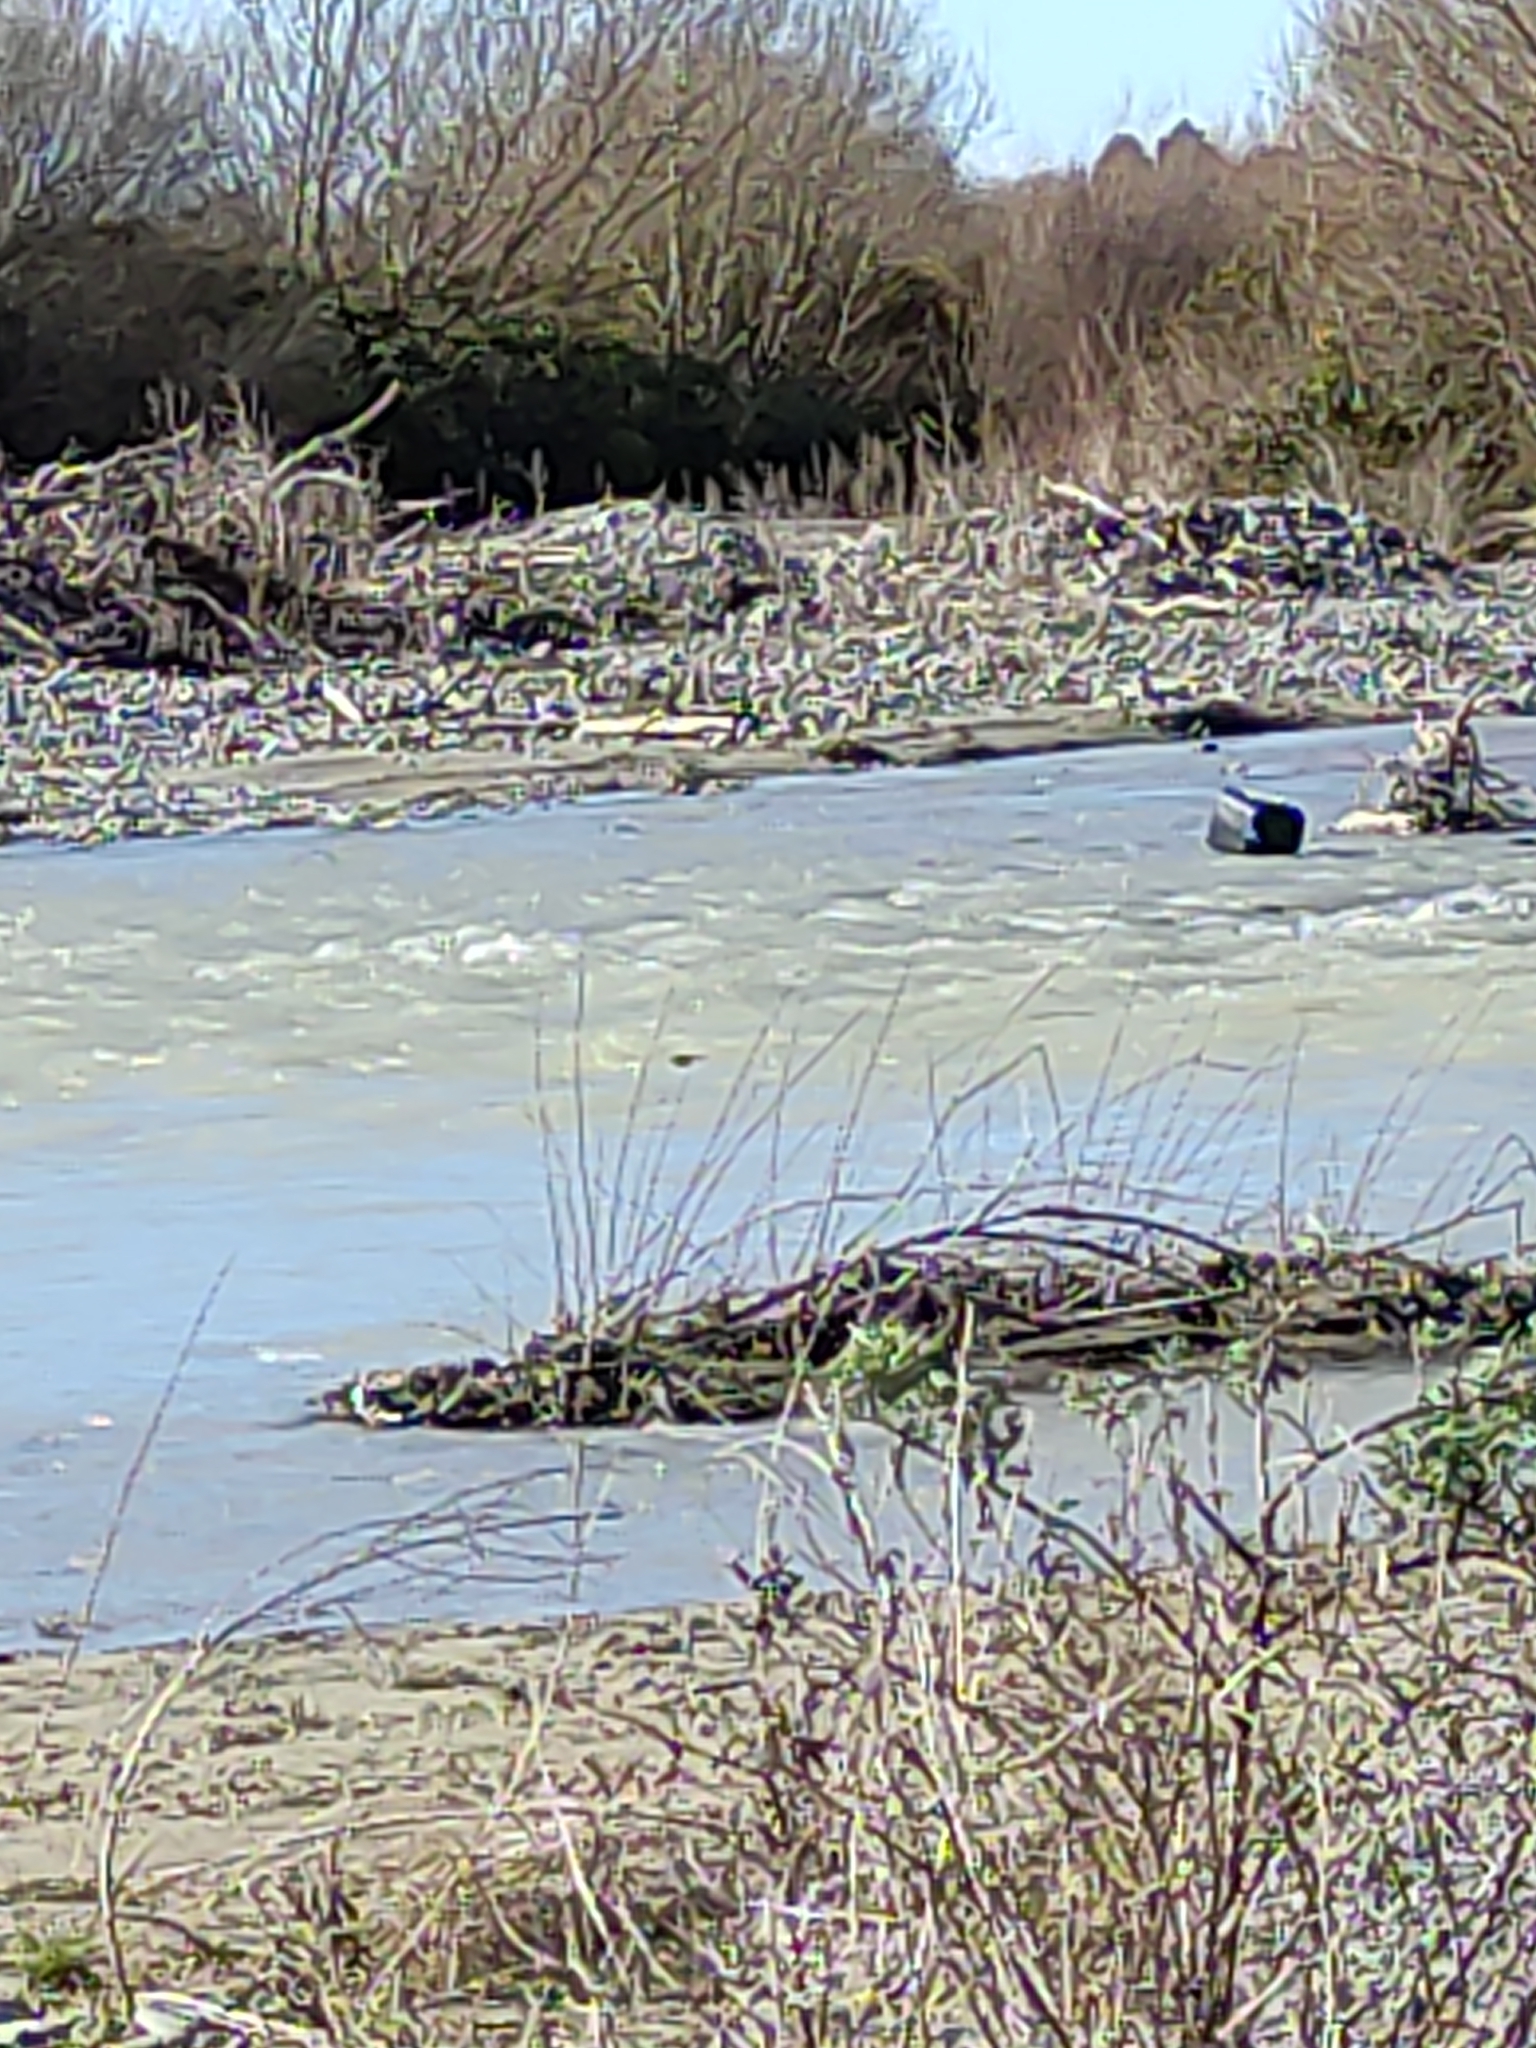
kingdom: Animalia
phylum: Chordata
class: Aves
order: Passeriformes
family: Hirundinidae
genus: Hirundo
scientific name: Hirundo neoxena
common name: Welcome swallow
